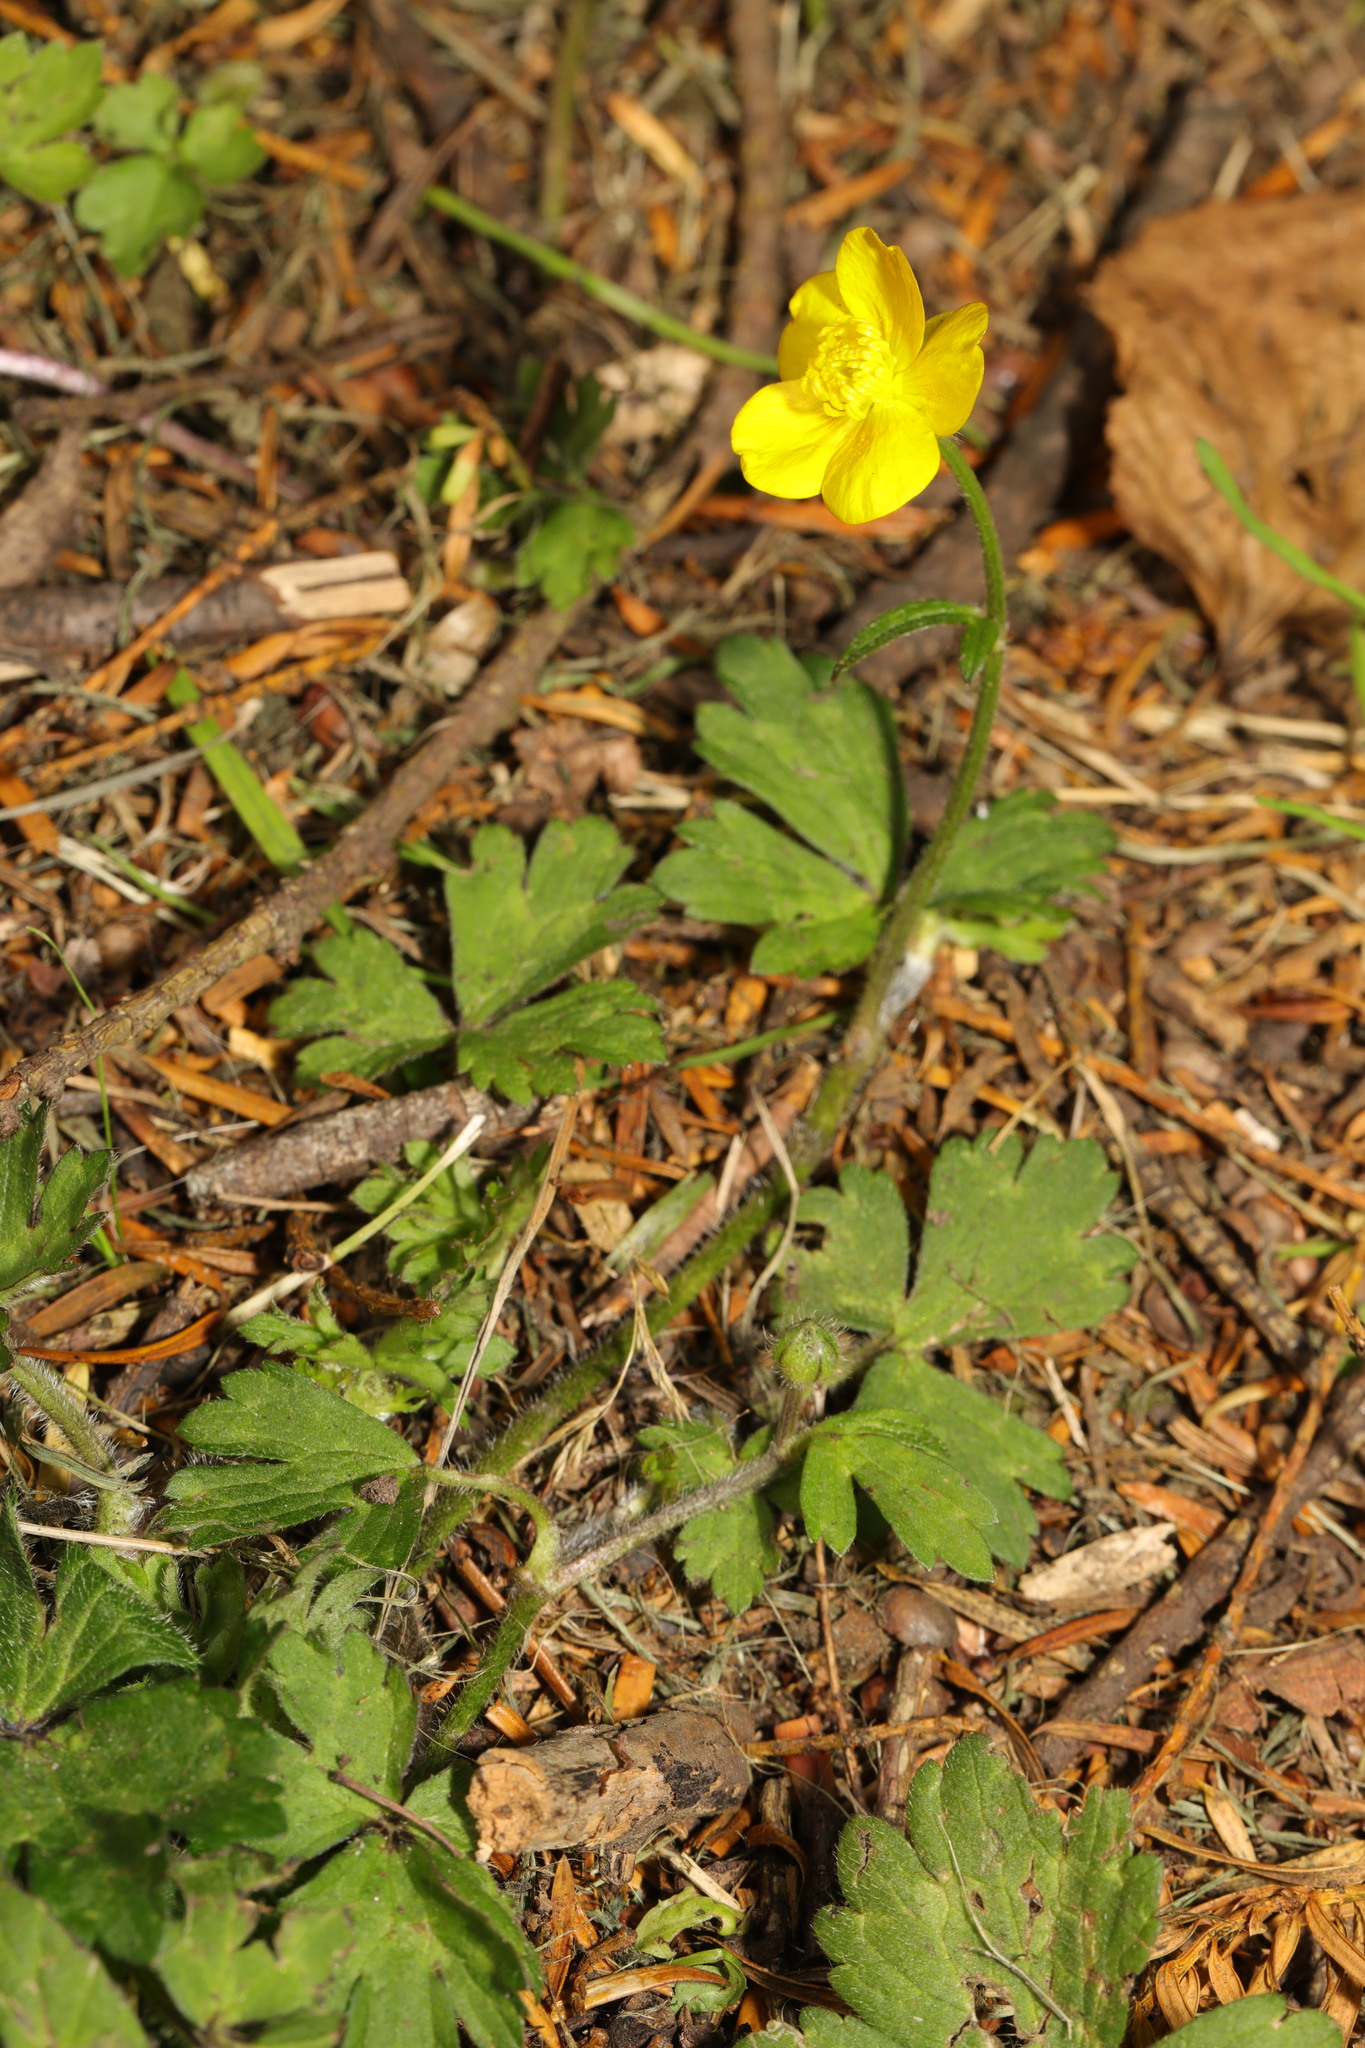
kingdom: Plantae
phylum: Tracheophyta
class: Magnoliopsida
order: Ranunculales
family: Ranunculaceae
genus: Ranunculus
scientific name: Ranunculus repens
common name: Creeping buttercup
